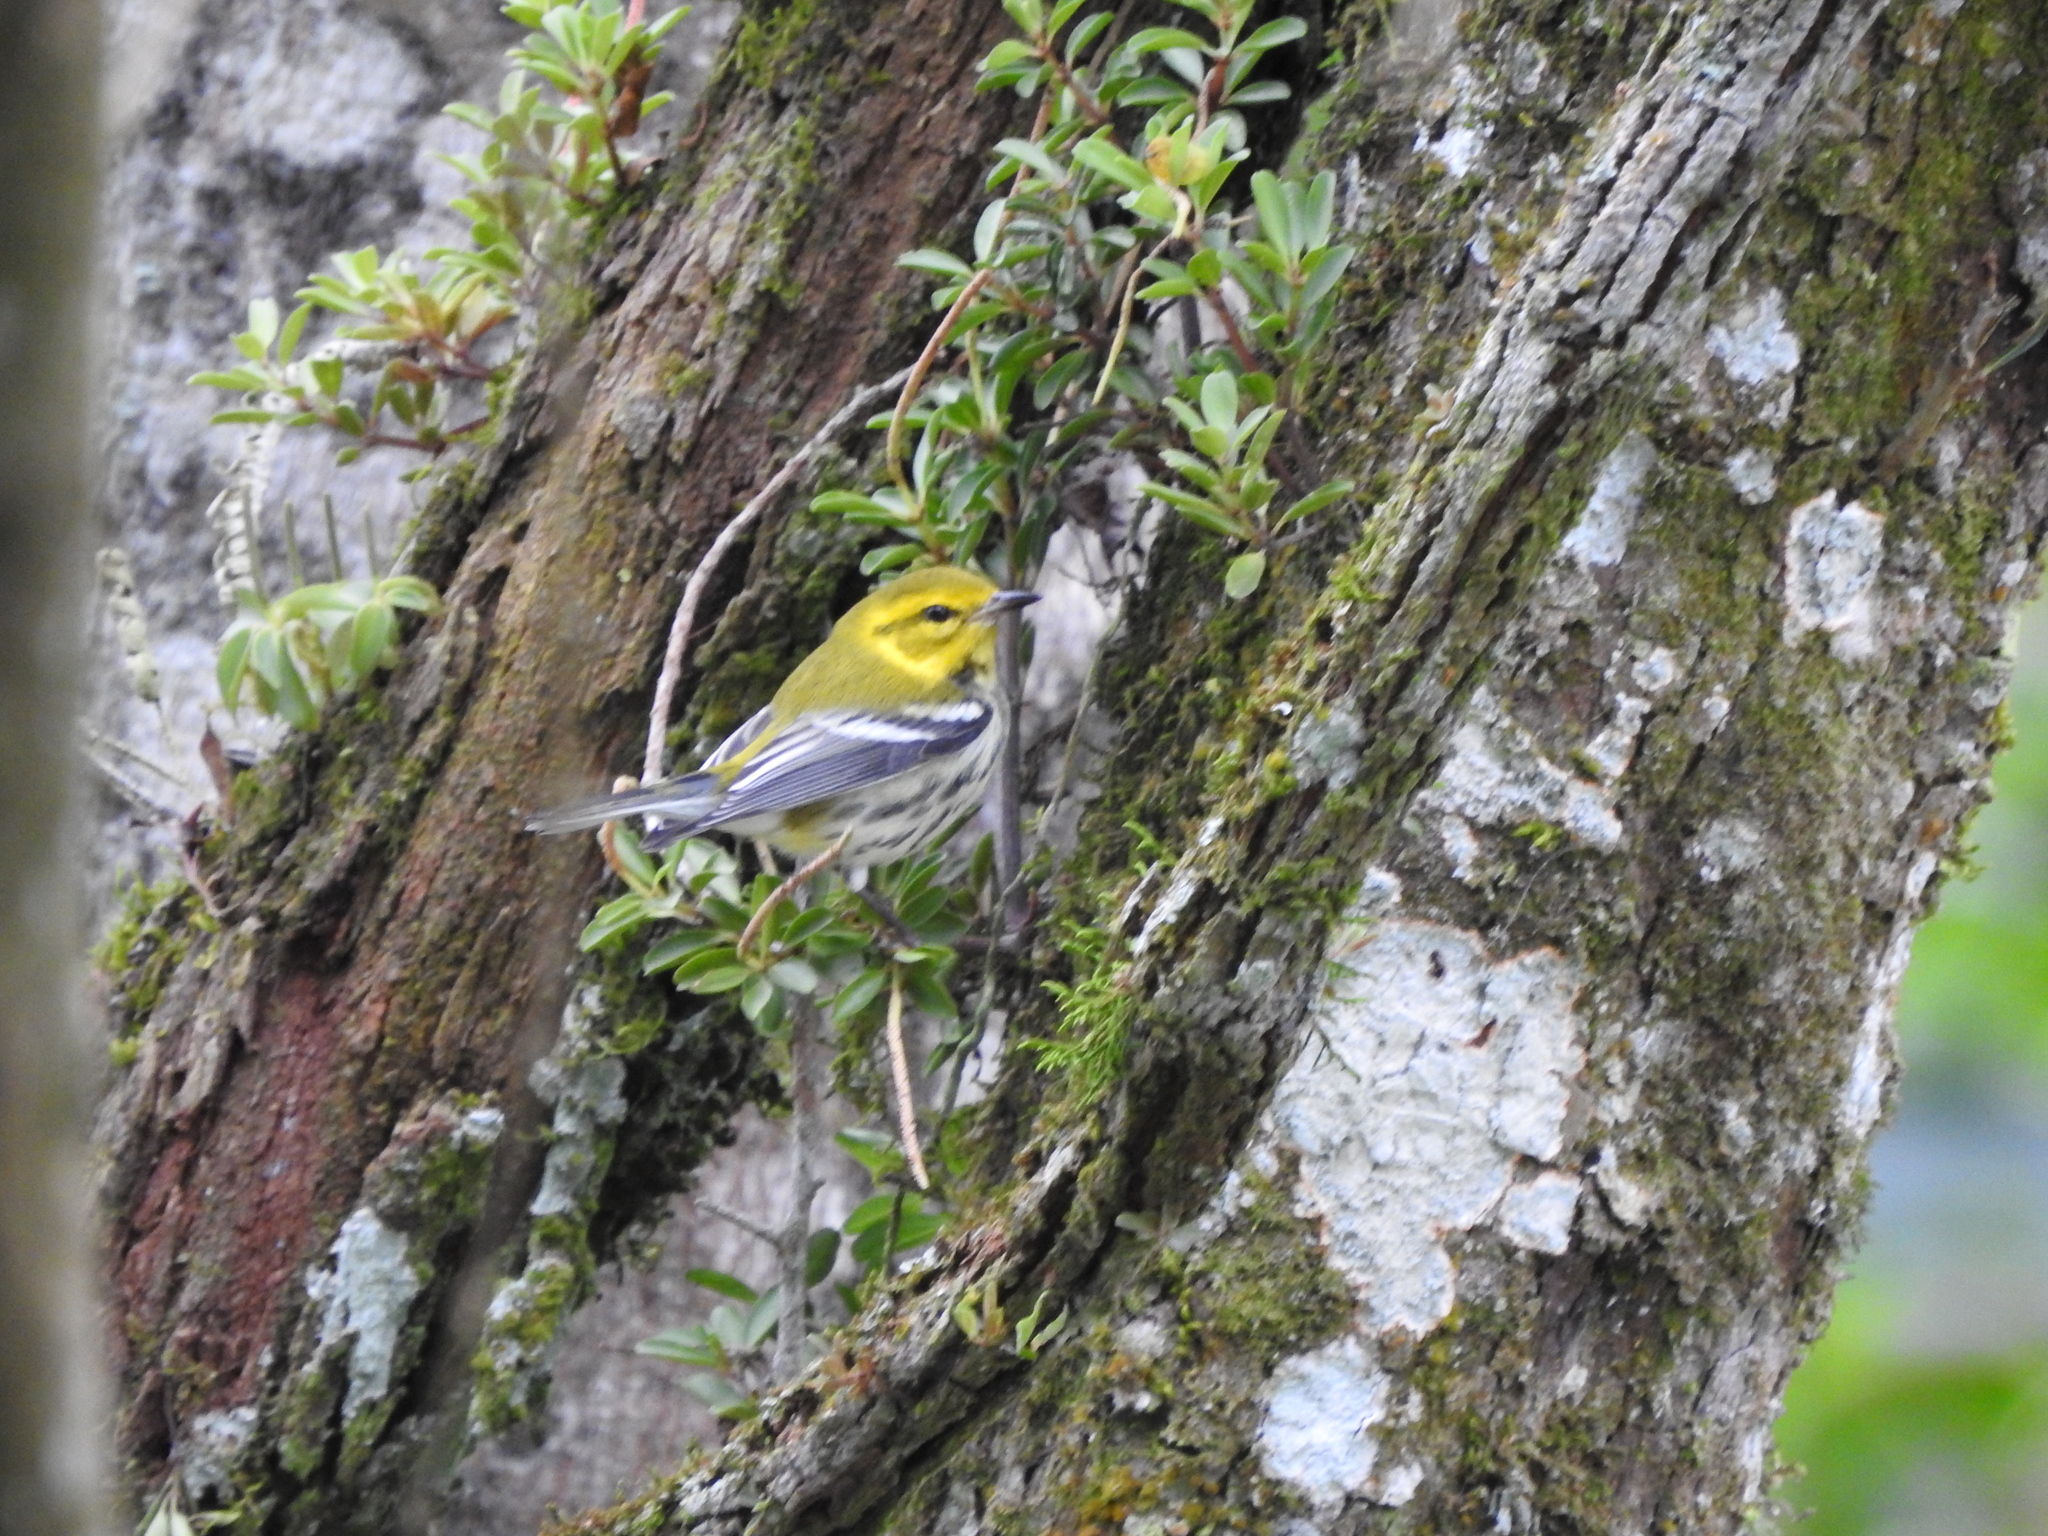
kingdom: Animalia
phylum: Chordata
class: Aves
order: Passeriformes
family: Parulidae
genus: Setophaga
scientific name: Setophaga virens
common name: Black-throated green warbler
